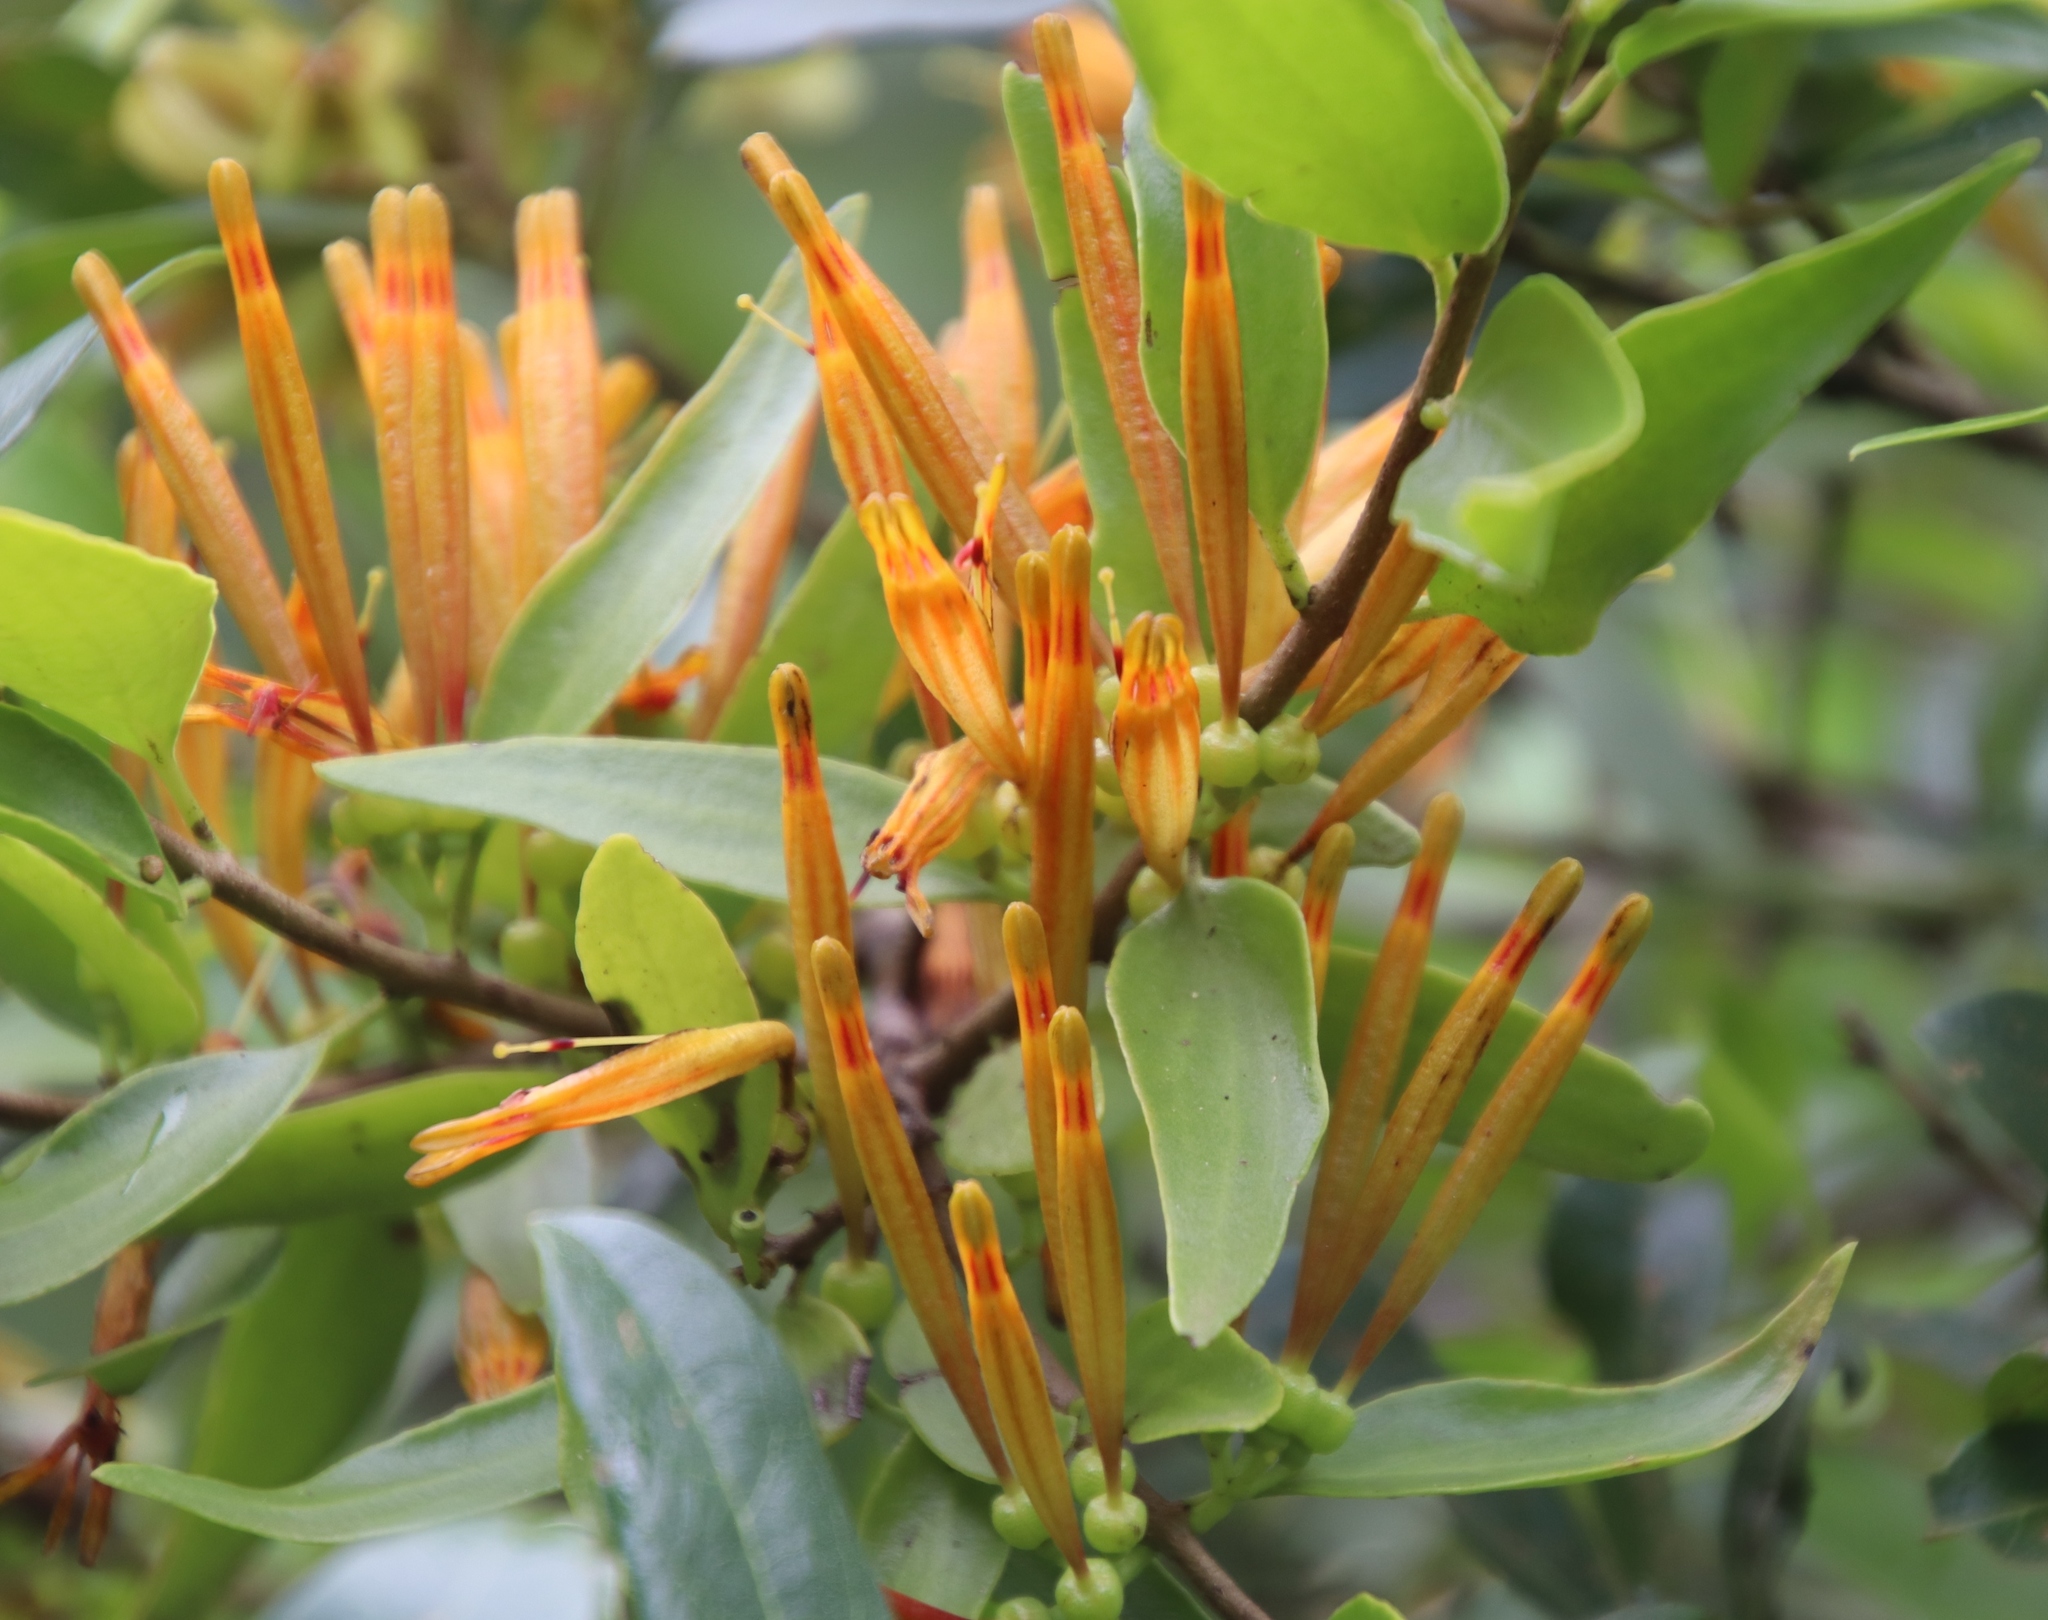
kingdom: Plantae
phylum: Tracheophyta
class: Magnoliopsida
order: Santalales
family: Loranthaceae
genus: Agelanthus
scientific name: Agelanthus transvaalensis
